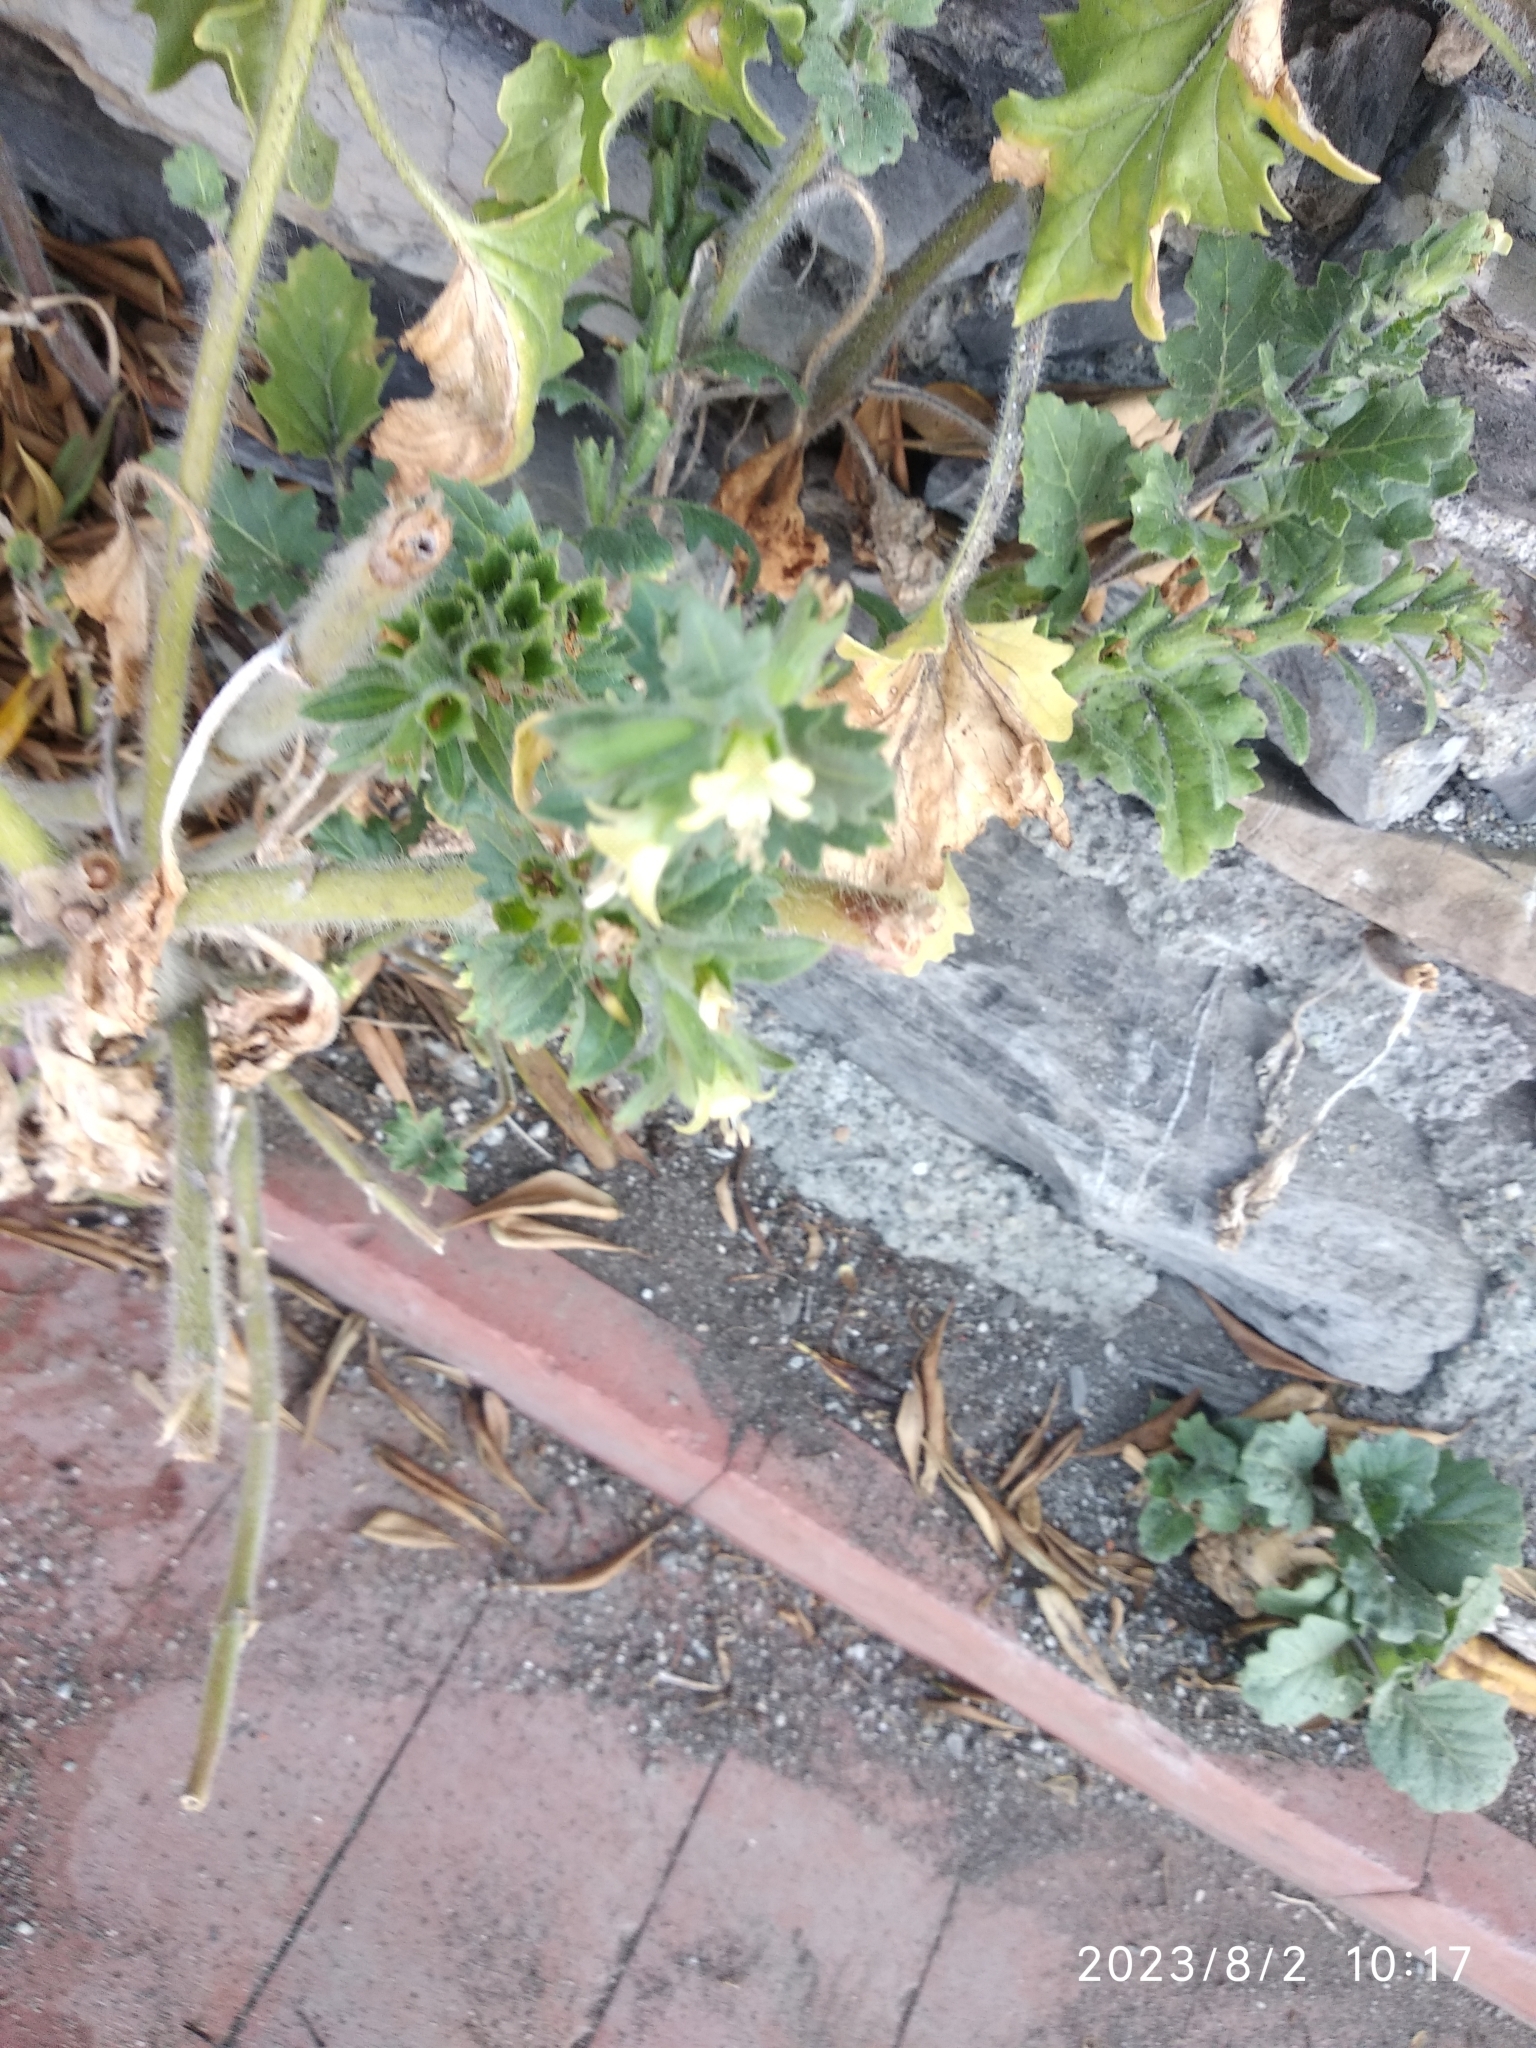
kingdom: Plantae
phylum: Tracheophyta
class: Magnoliopsida
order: Solanales
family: Solanaceae
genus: Hyoscyamus
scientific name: Hyoscyamus albus
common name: White henbane
